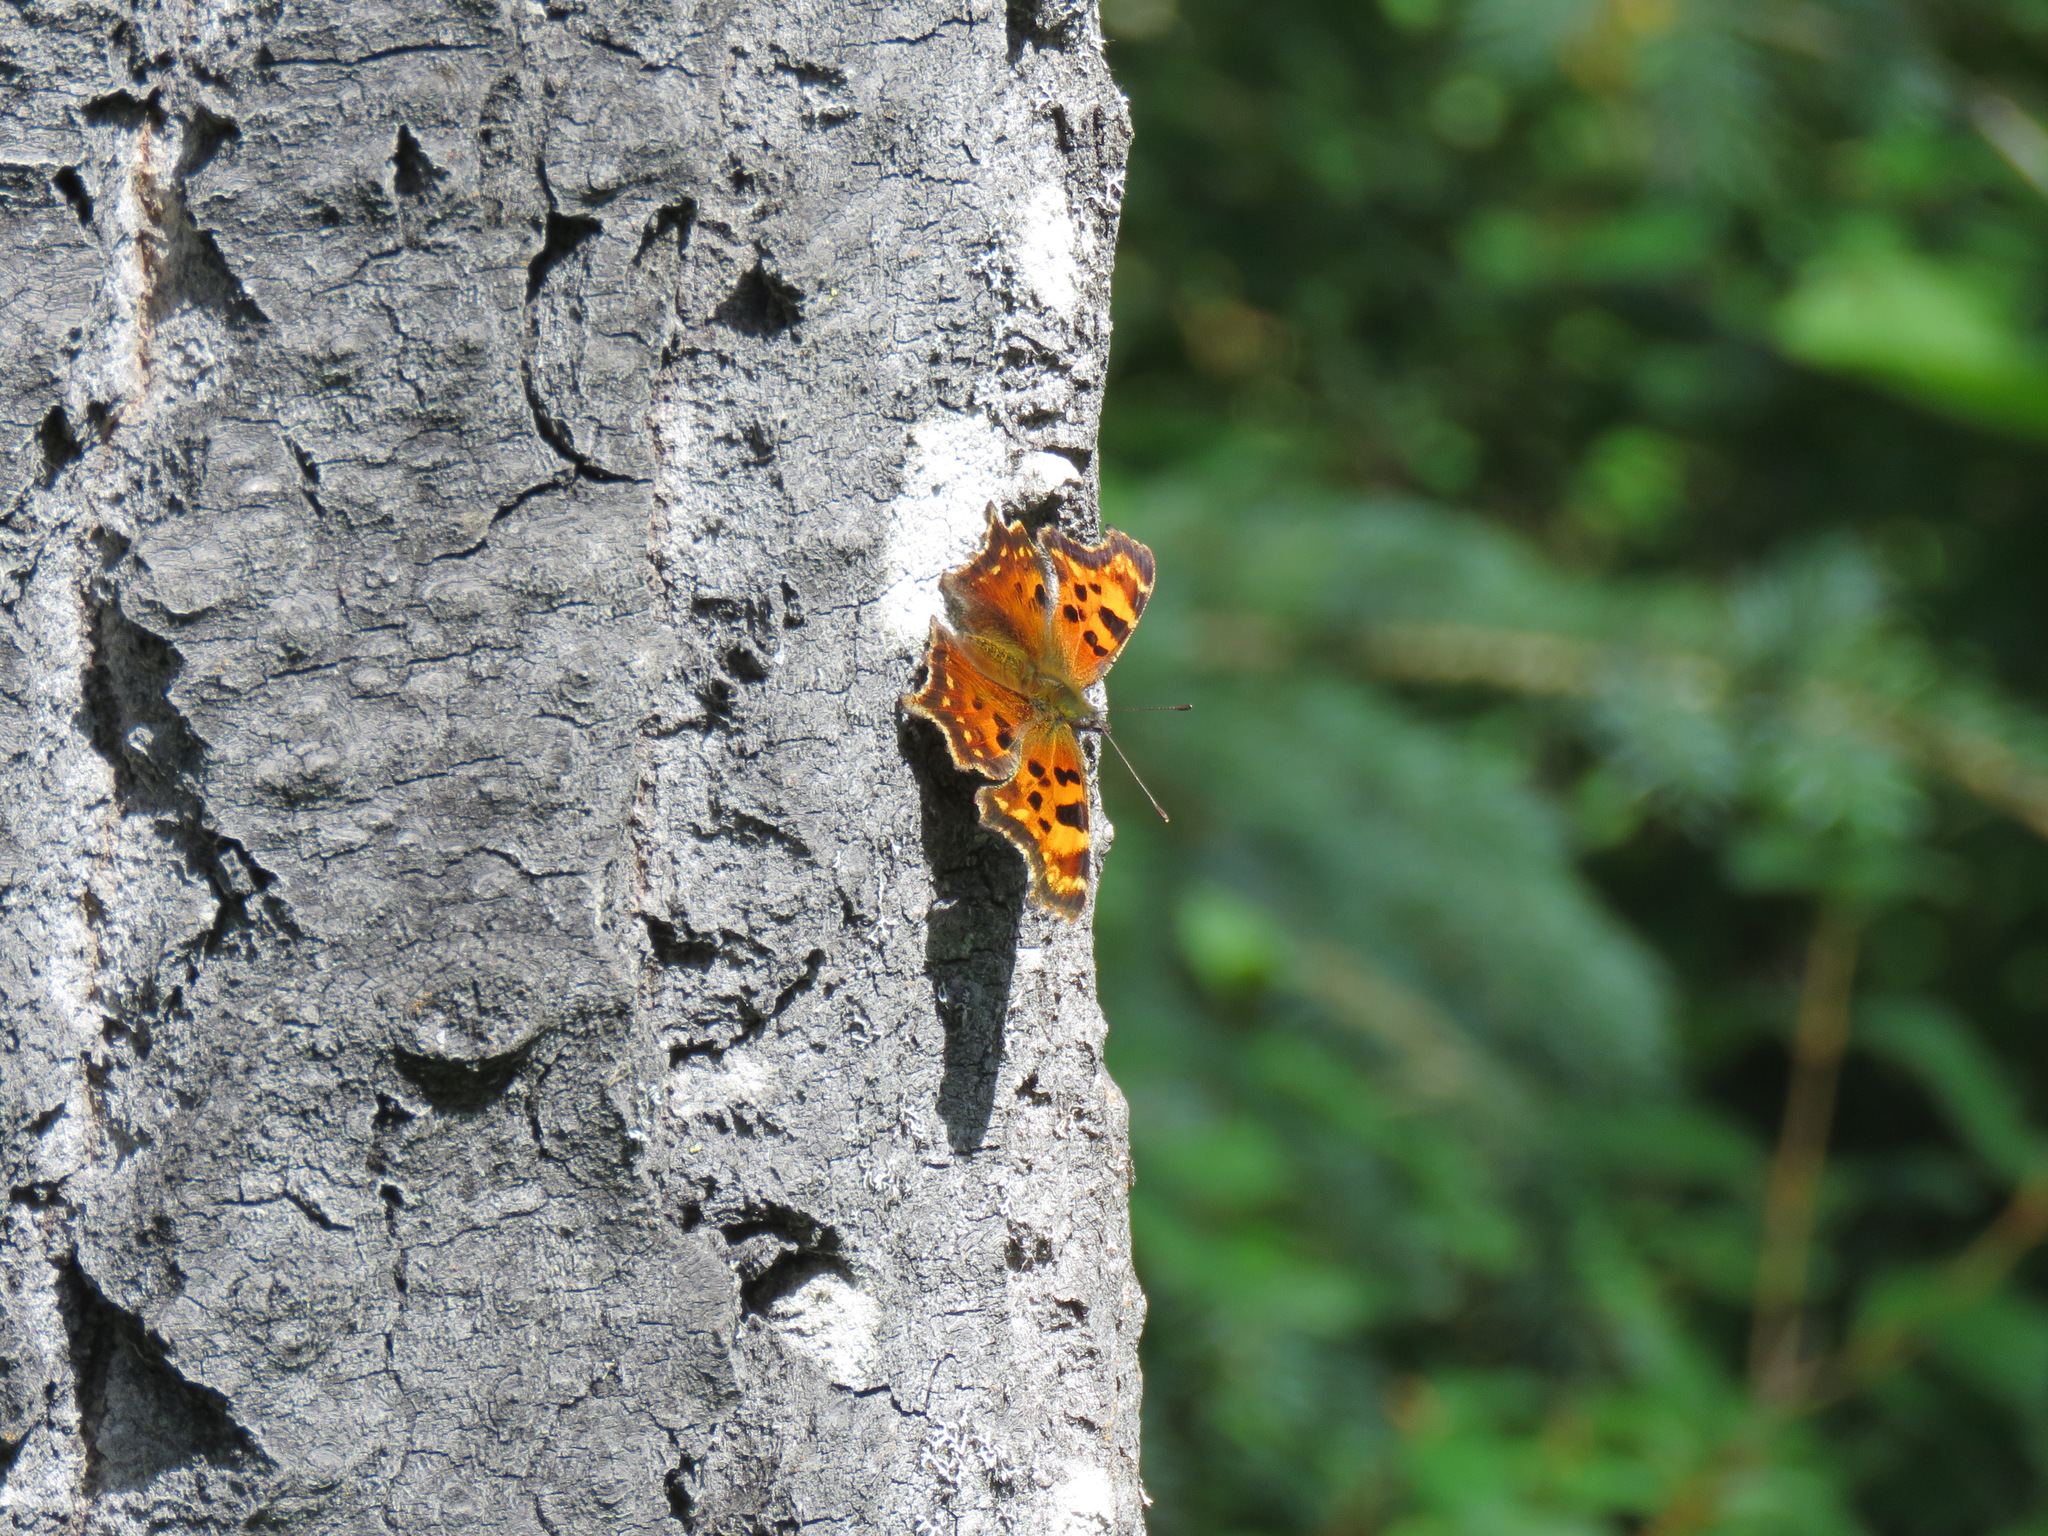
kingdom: Animalia
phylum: Arthropoda
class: Insecta
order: Lepidoptera
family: Nymphalidae
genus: Polygonia
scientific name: Polygonia faunus
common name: Green comma
